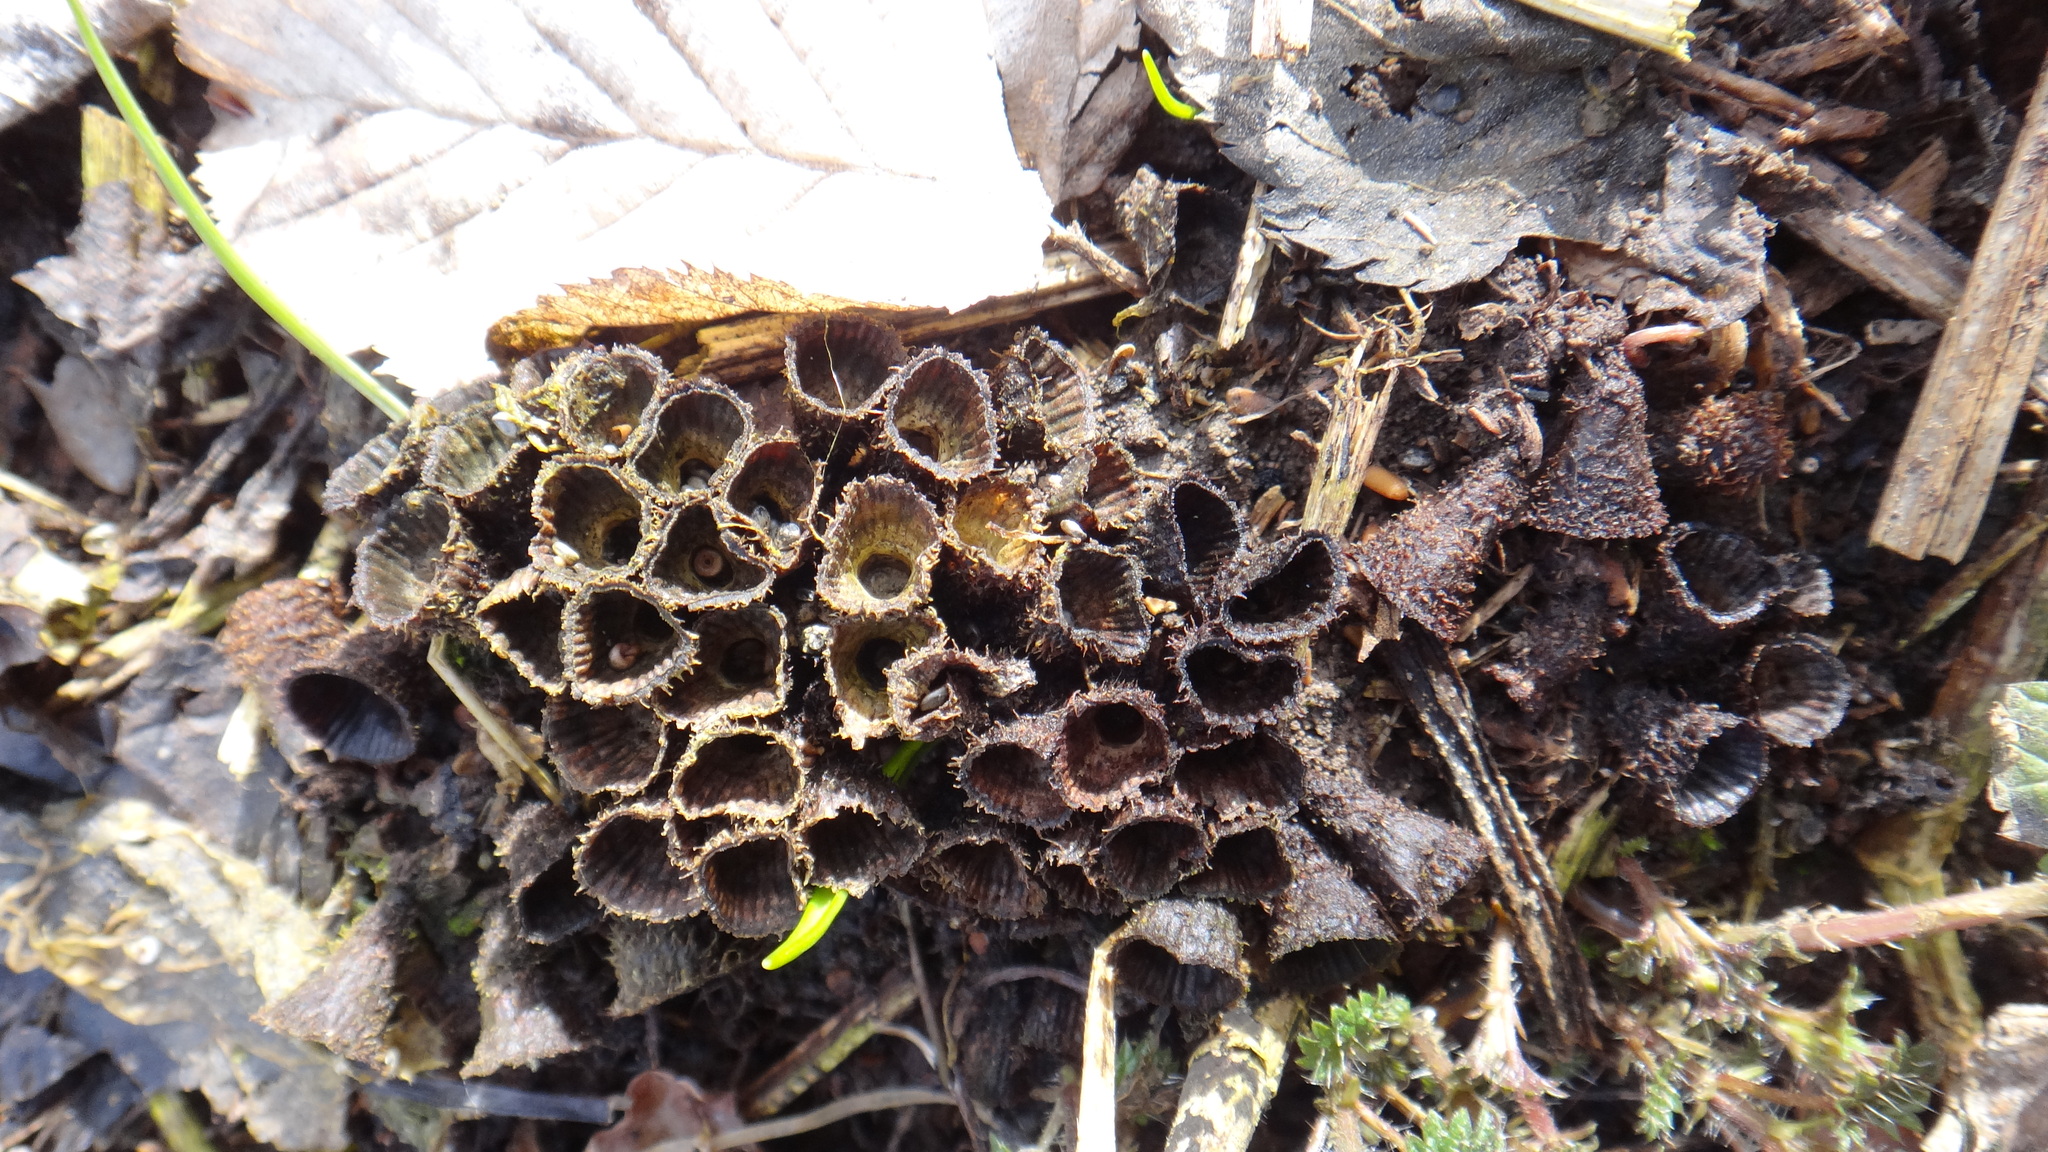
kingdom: Fungi
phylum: Basidiomycota
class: Agaricomycetes
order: Agaricales
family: Agaricaceae
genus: Cyathus
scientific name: Cyathus striatus
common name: Fluted bird's nest
